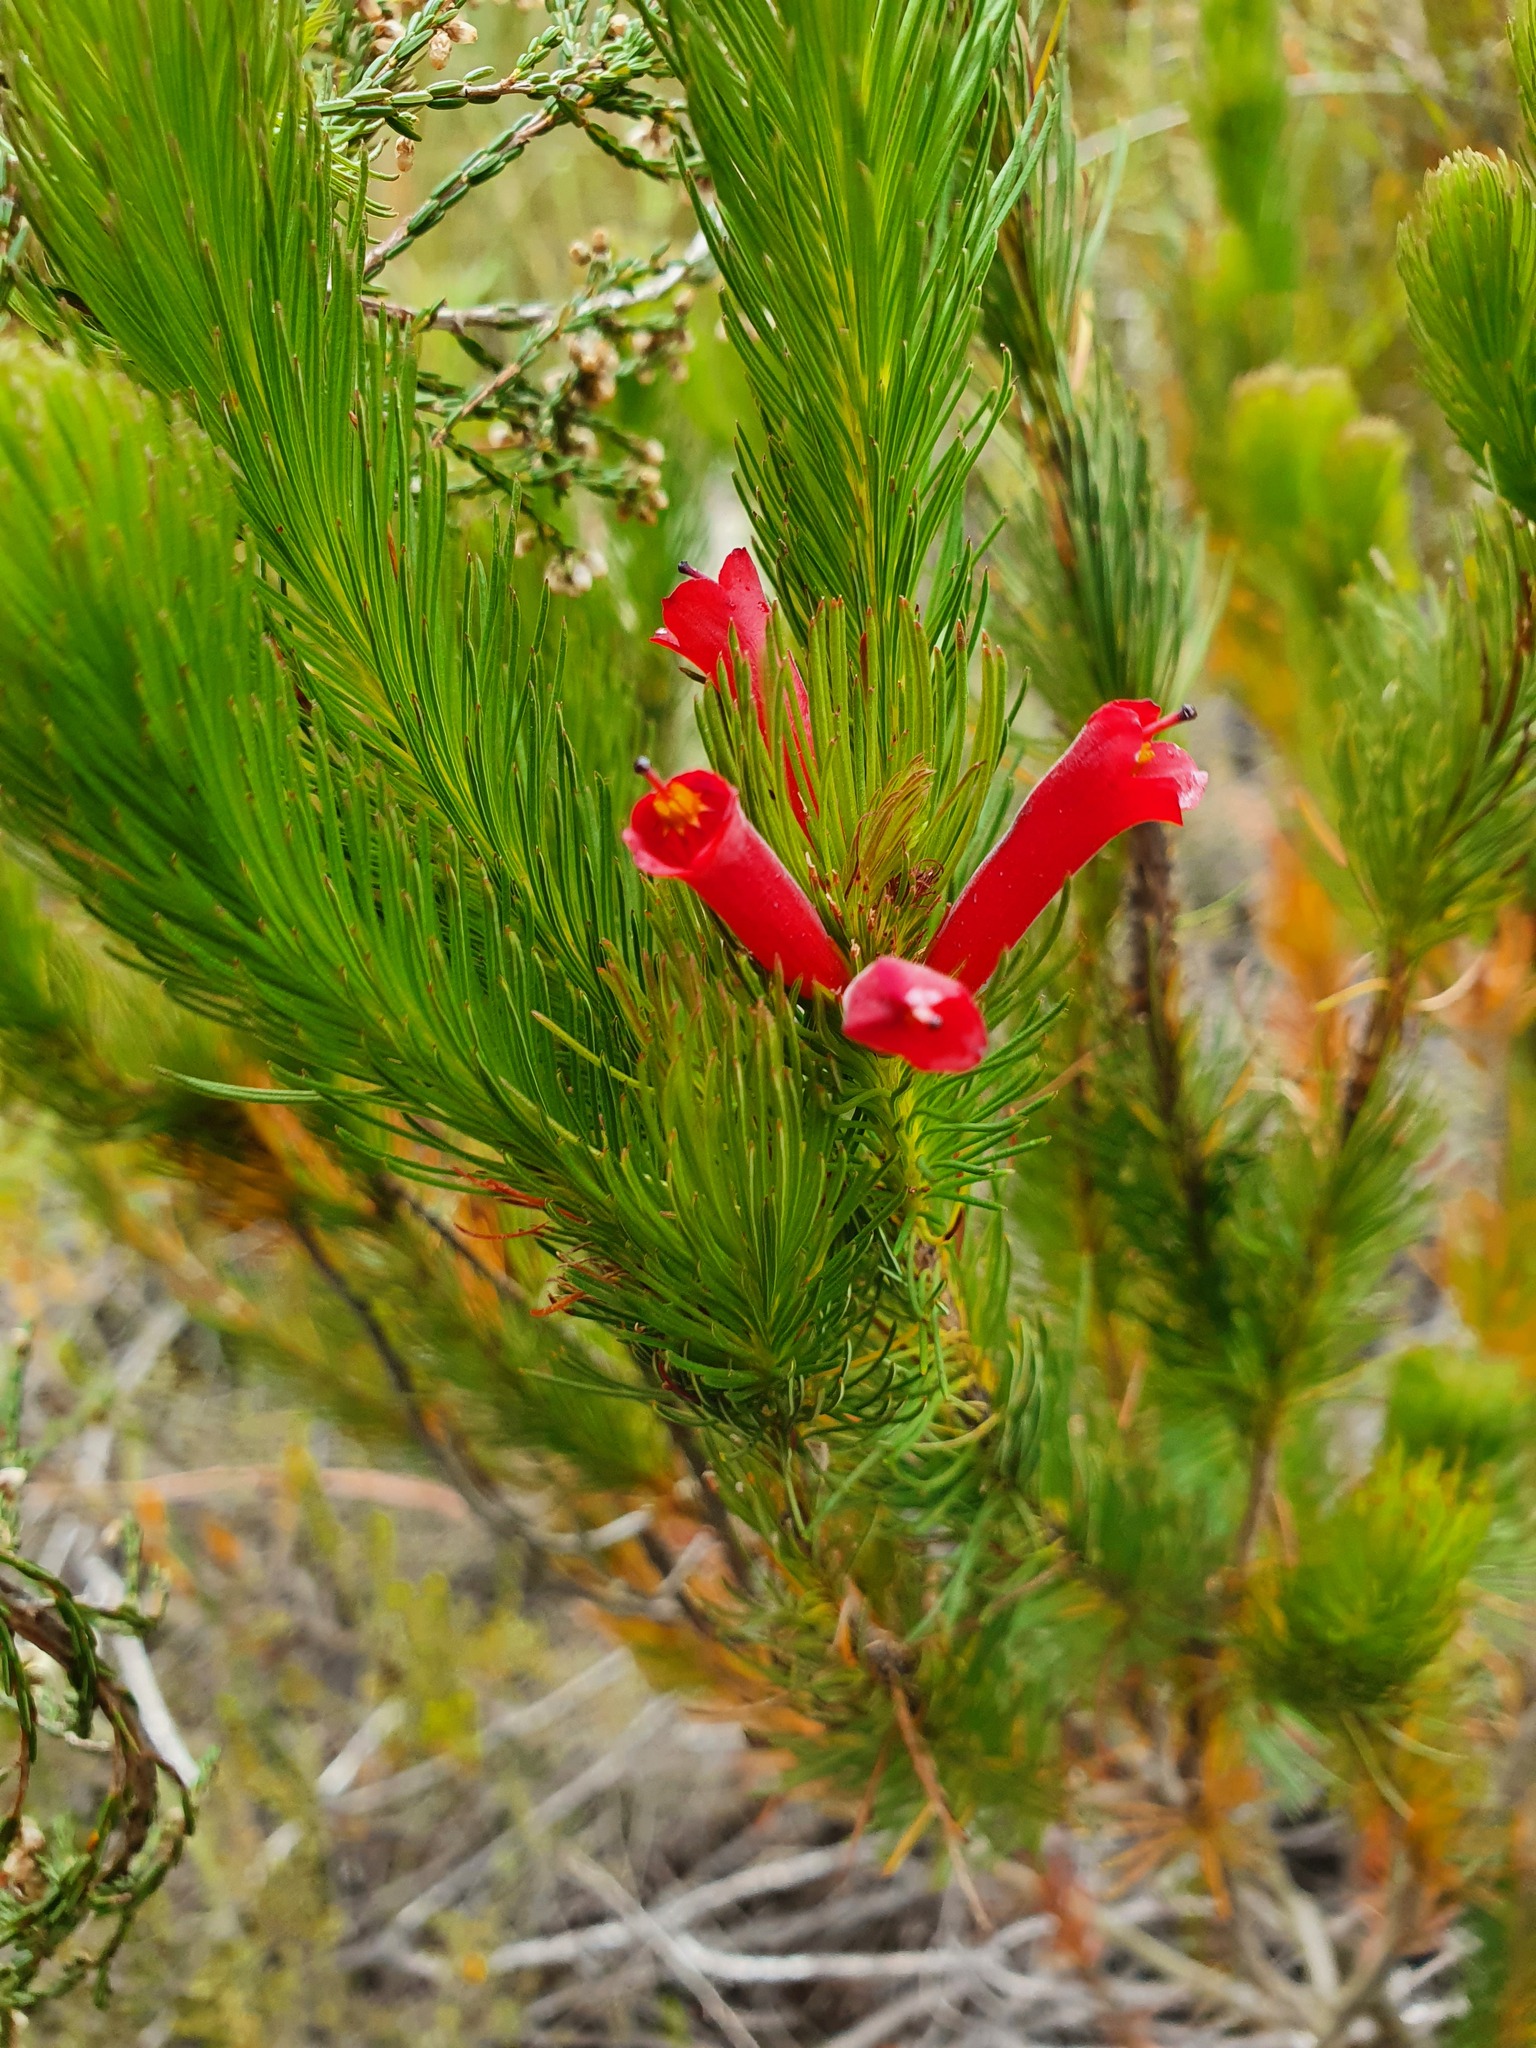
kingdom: Plantae
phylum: Tracheophyta
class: Magnoliopsida
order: Ericales
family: Ericaceae
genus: Erica
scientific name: Erica vestita
